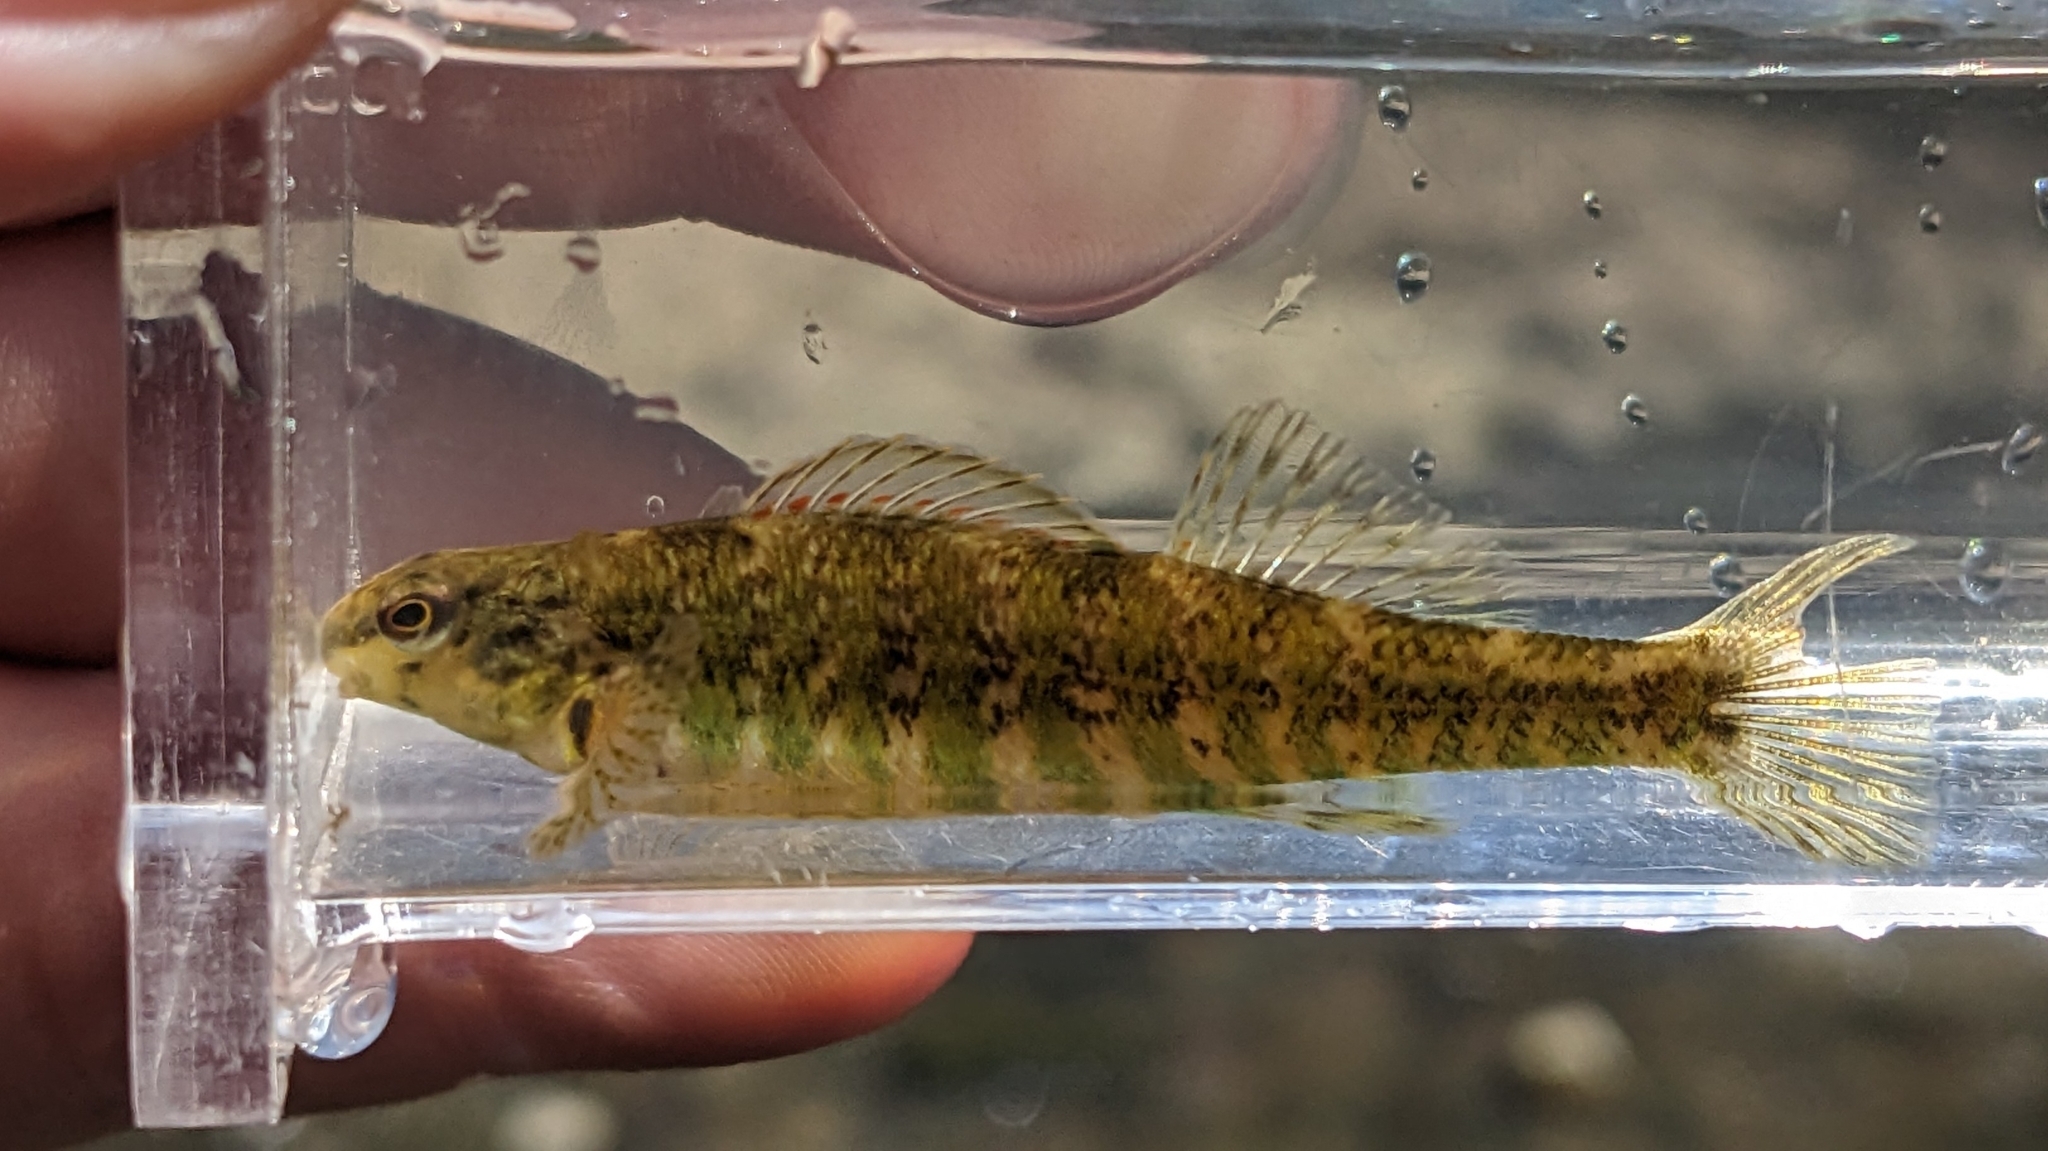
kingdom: Animalia
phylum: Chordata
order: Perciformes
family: Percidae
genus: Etheostoma
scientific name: Etheostoma zonale
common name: Banded darter
